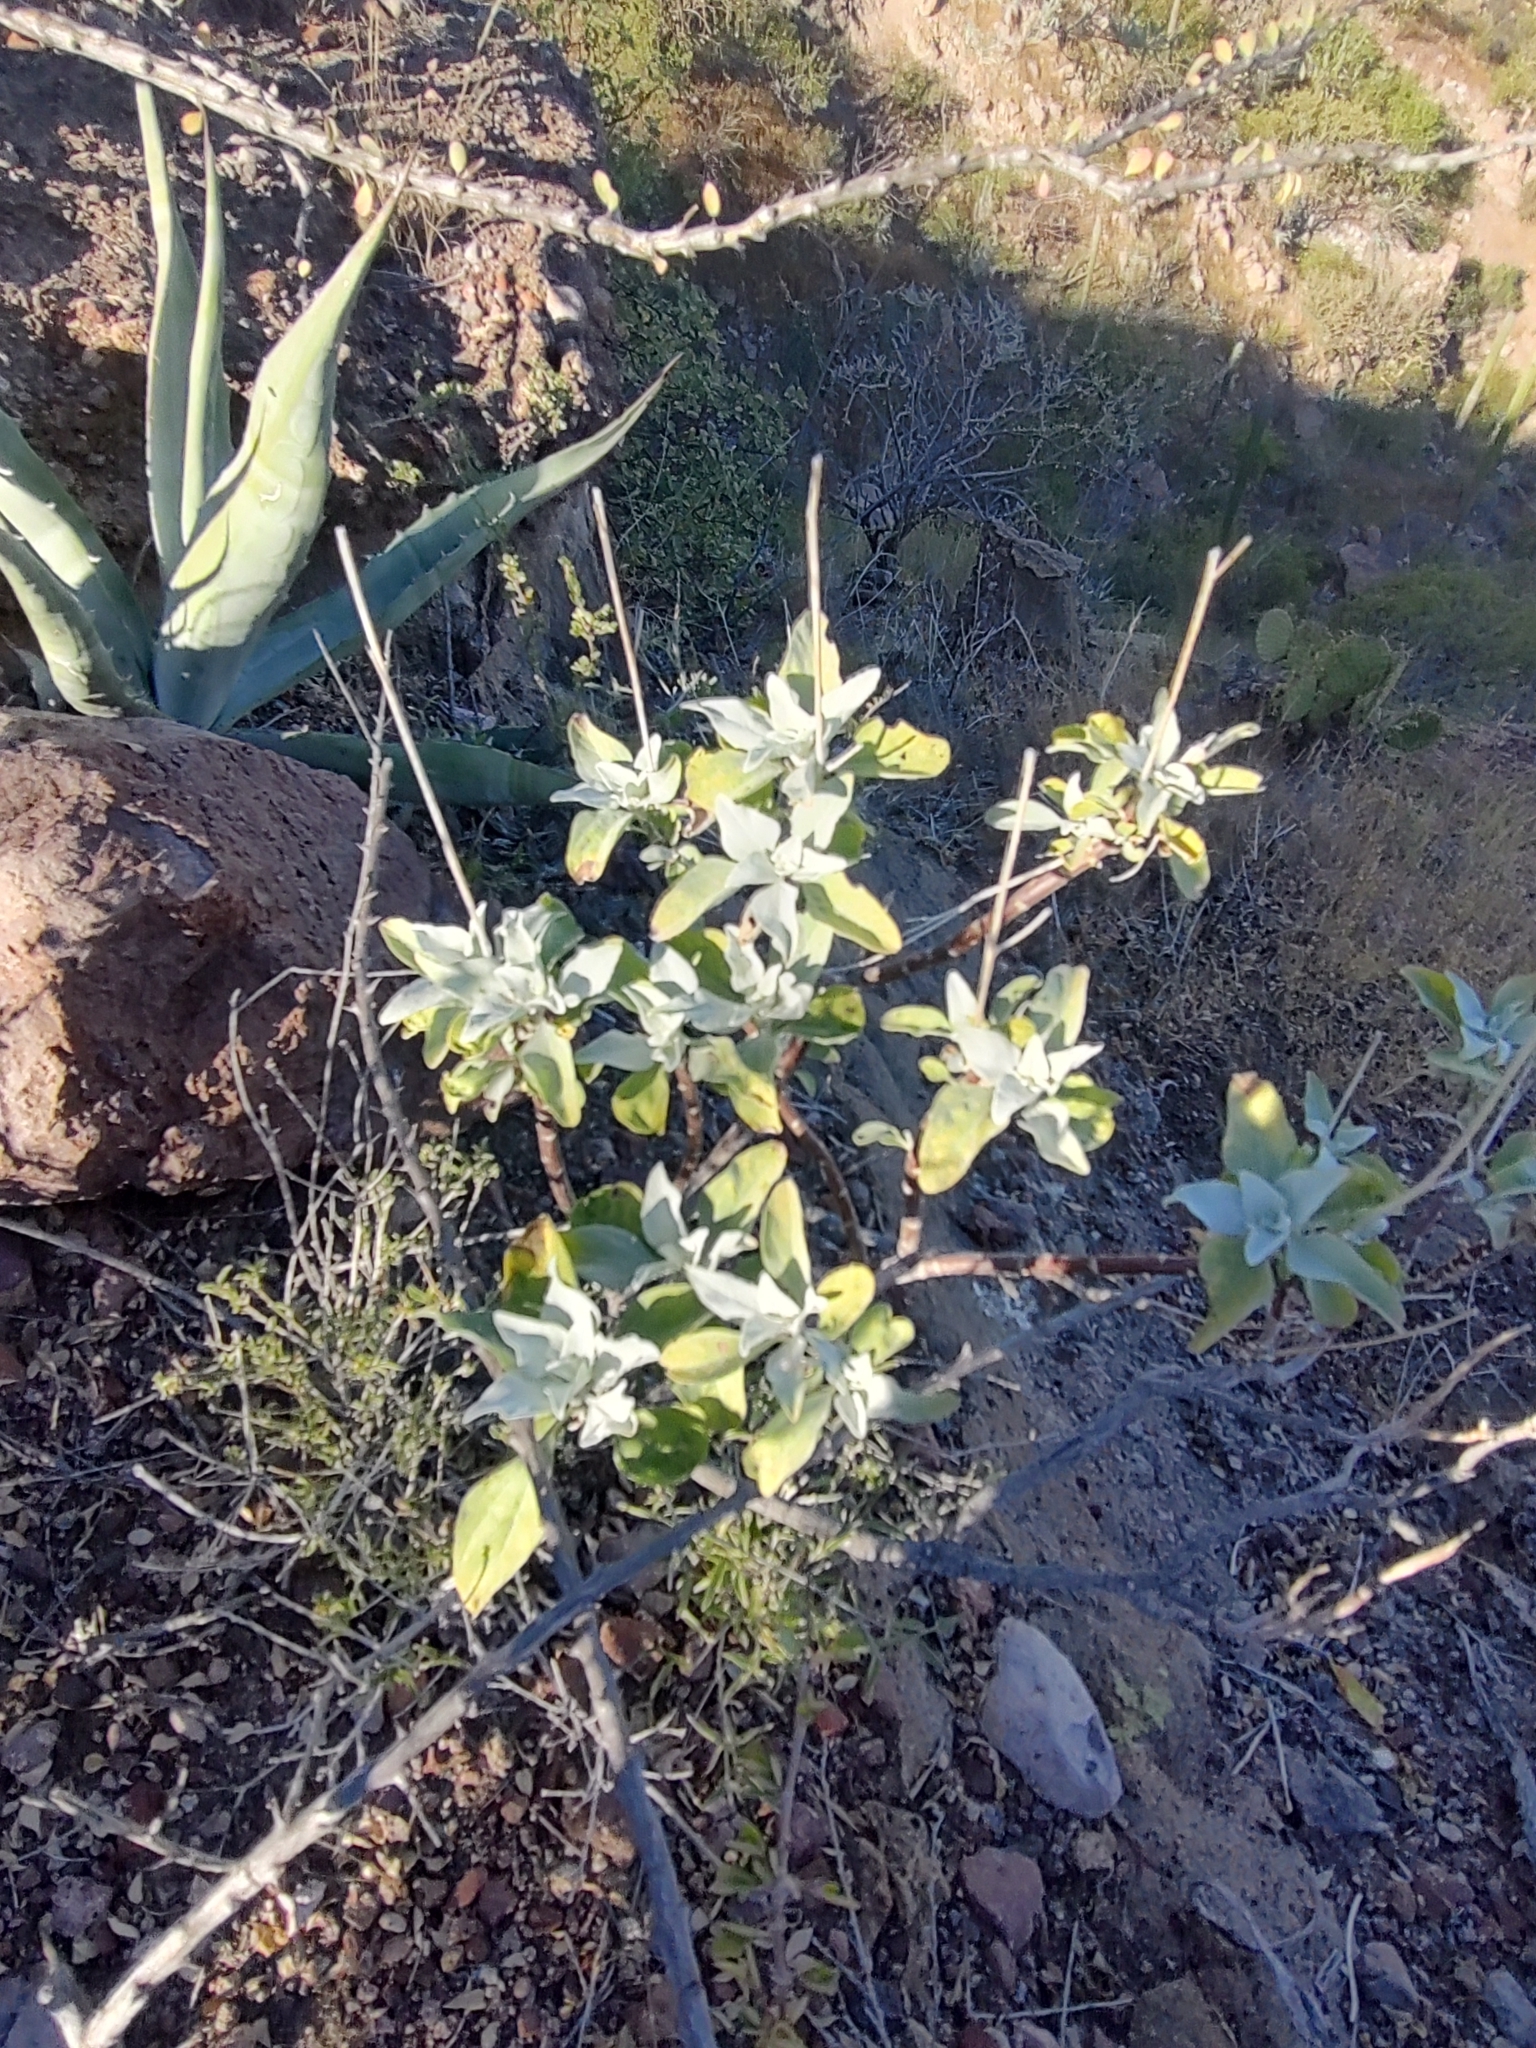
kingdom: Plantae
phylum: Tracheophyta
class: Magnoliopsida
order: Asterales
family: Asteraceae
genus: Encelia
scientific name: Encelia farinosa
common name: Brittlebush
